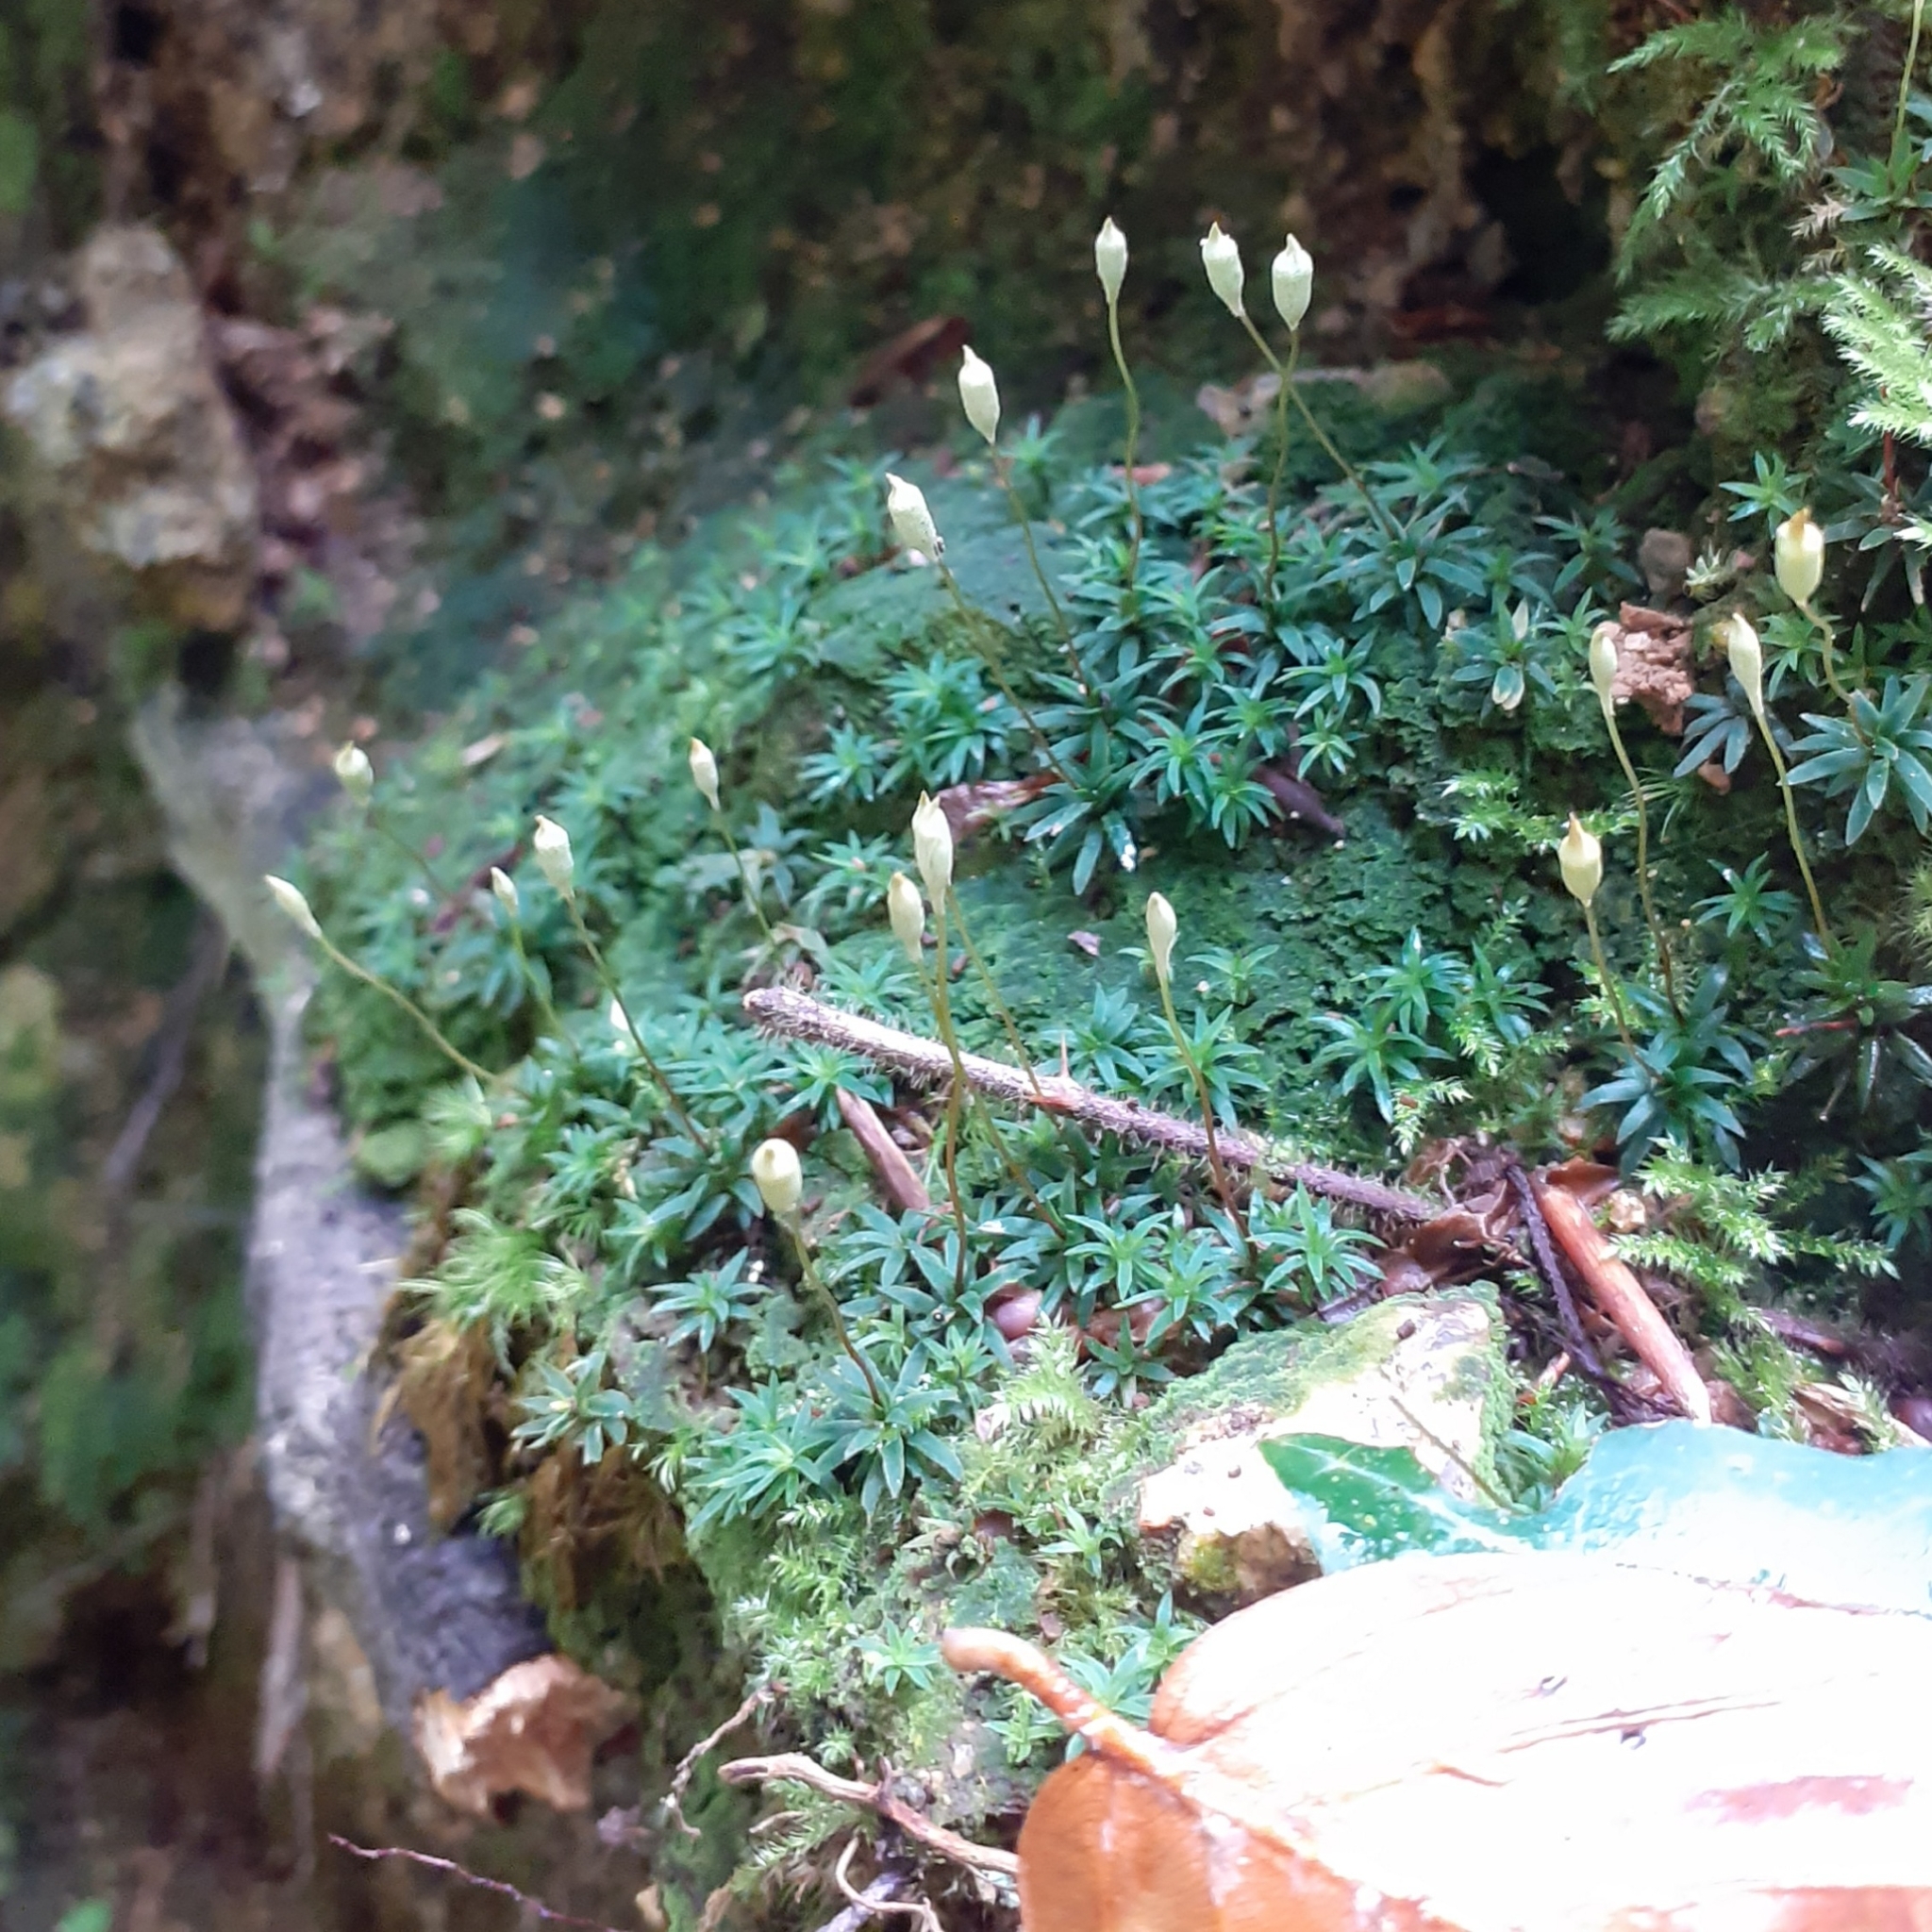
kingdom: Plantae
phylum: Bryophyta
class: Polytrichopsida
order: Polytrichales
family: Polytrichaceae
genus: Pogonatum
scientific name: Pogonatum aloides
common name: Aloe haircap
